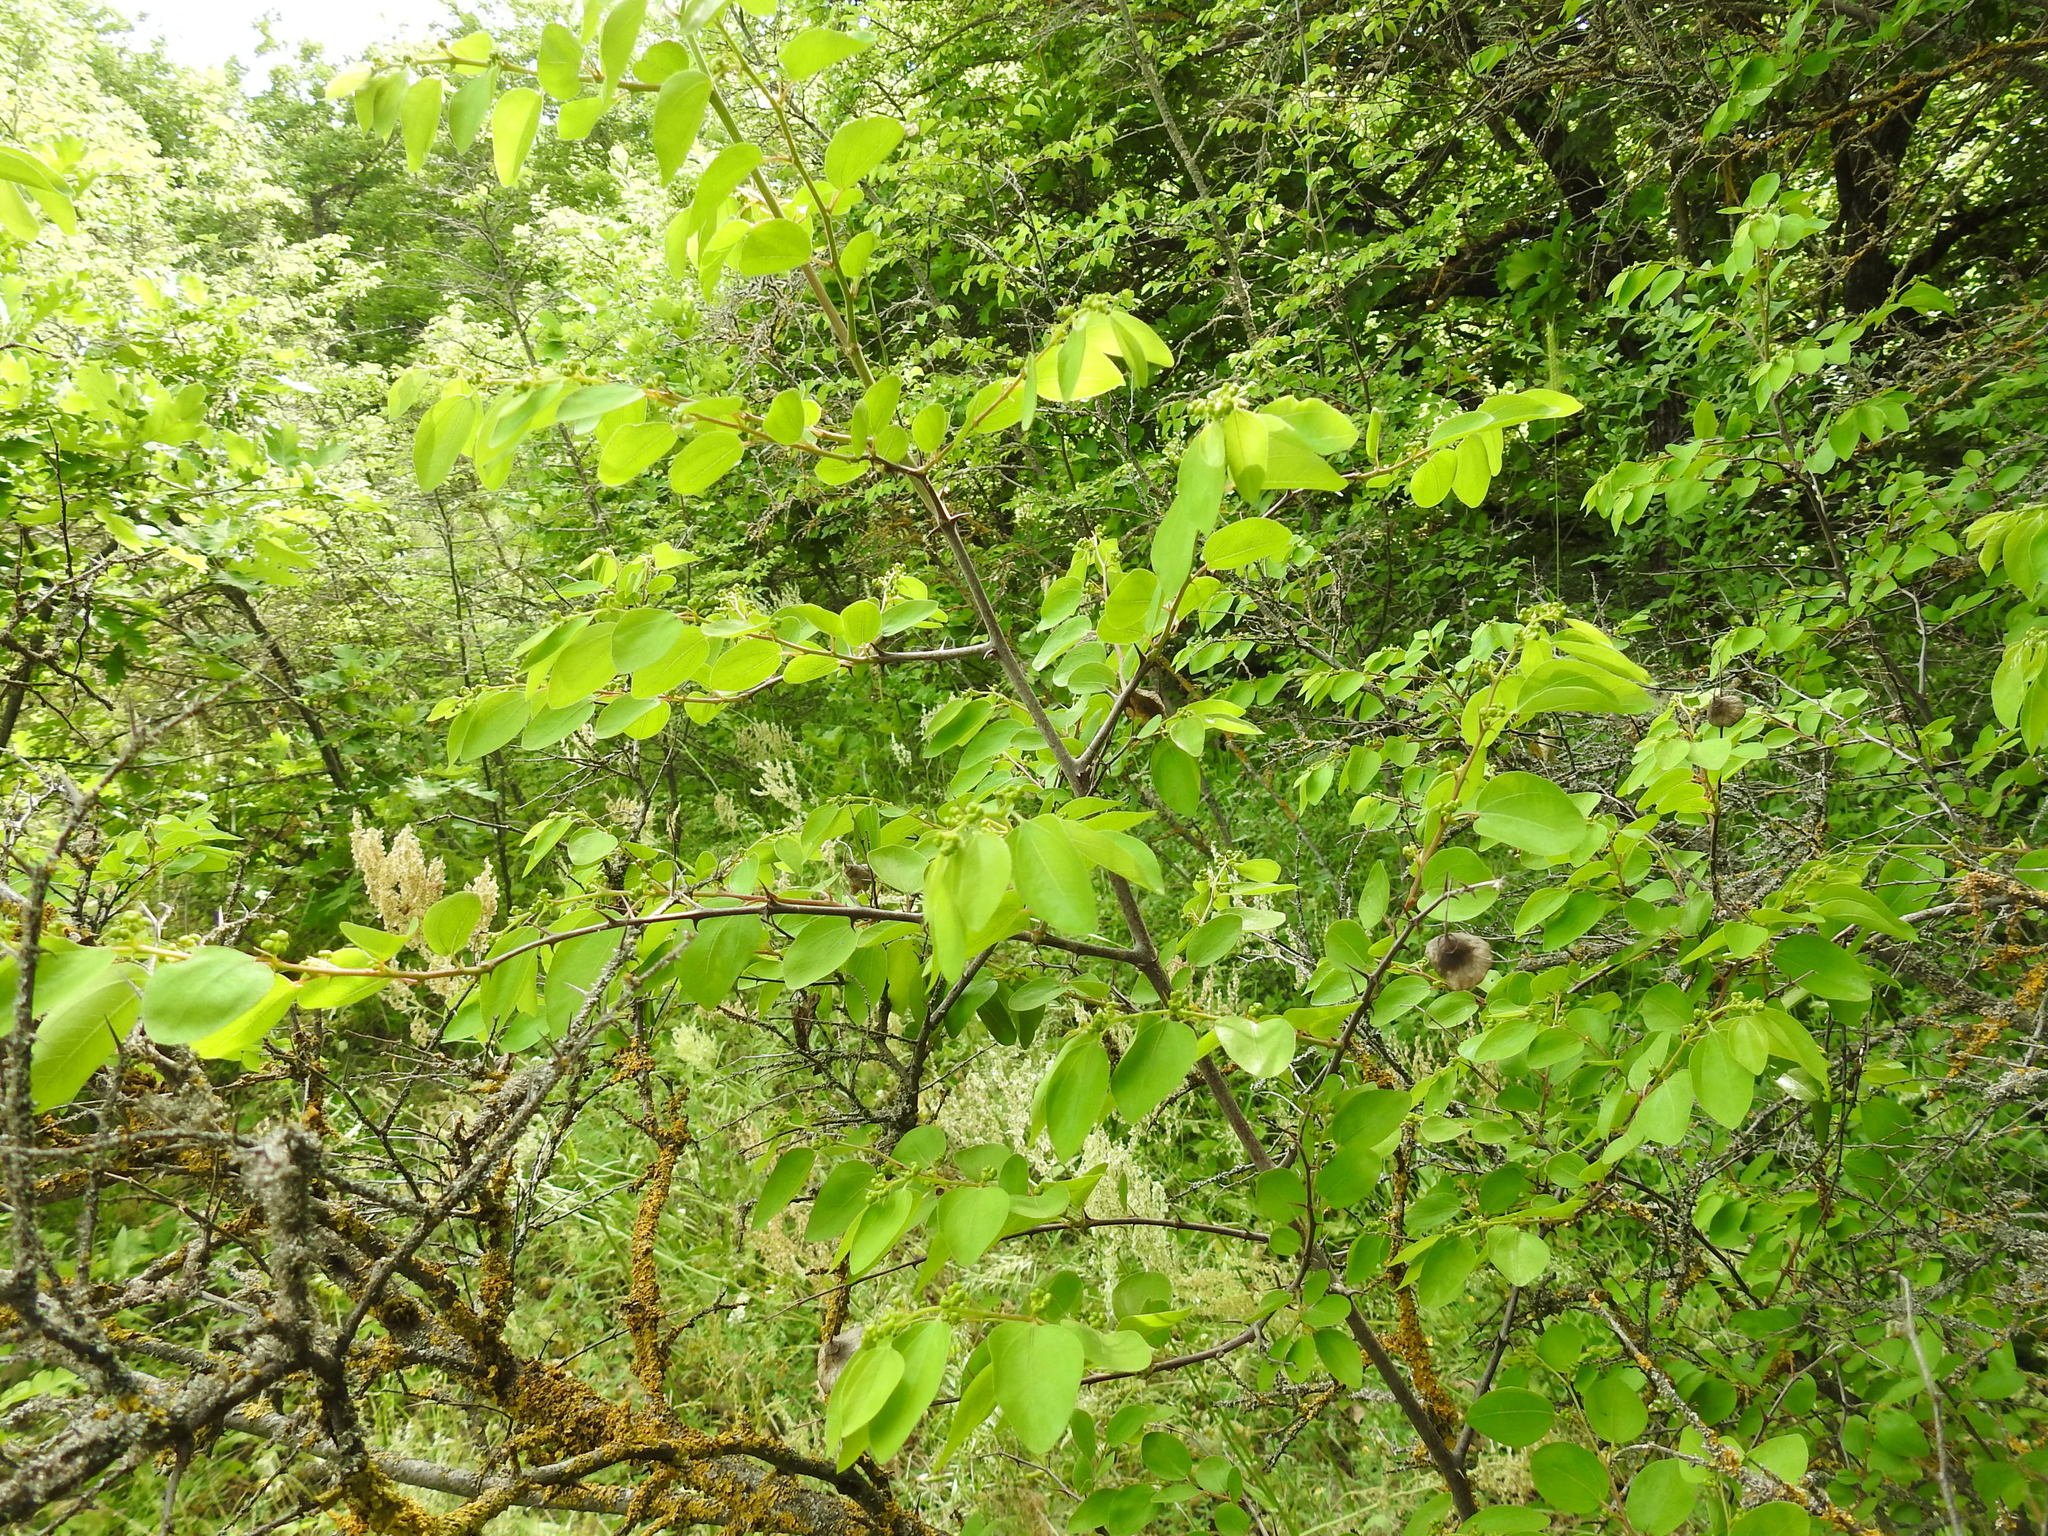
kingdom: Plantae
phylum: Tracheophyta
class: Magnoliopsida
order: Rosales
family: Rhamnaceae
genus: Paliurus
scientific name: Paliurus spina-christi
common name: Jeruselem thorn
